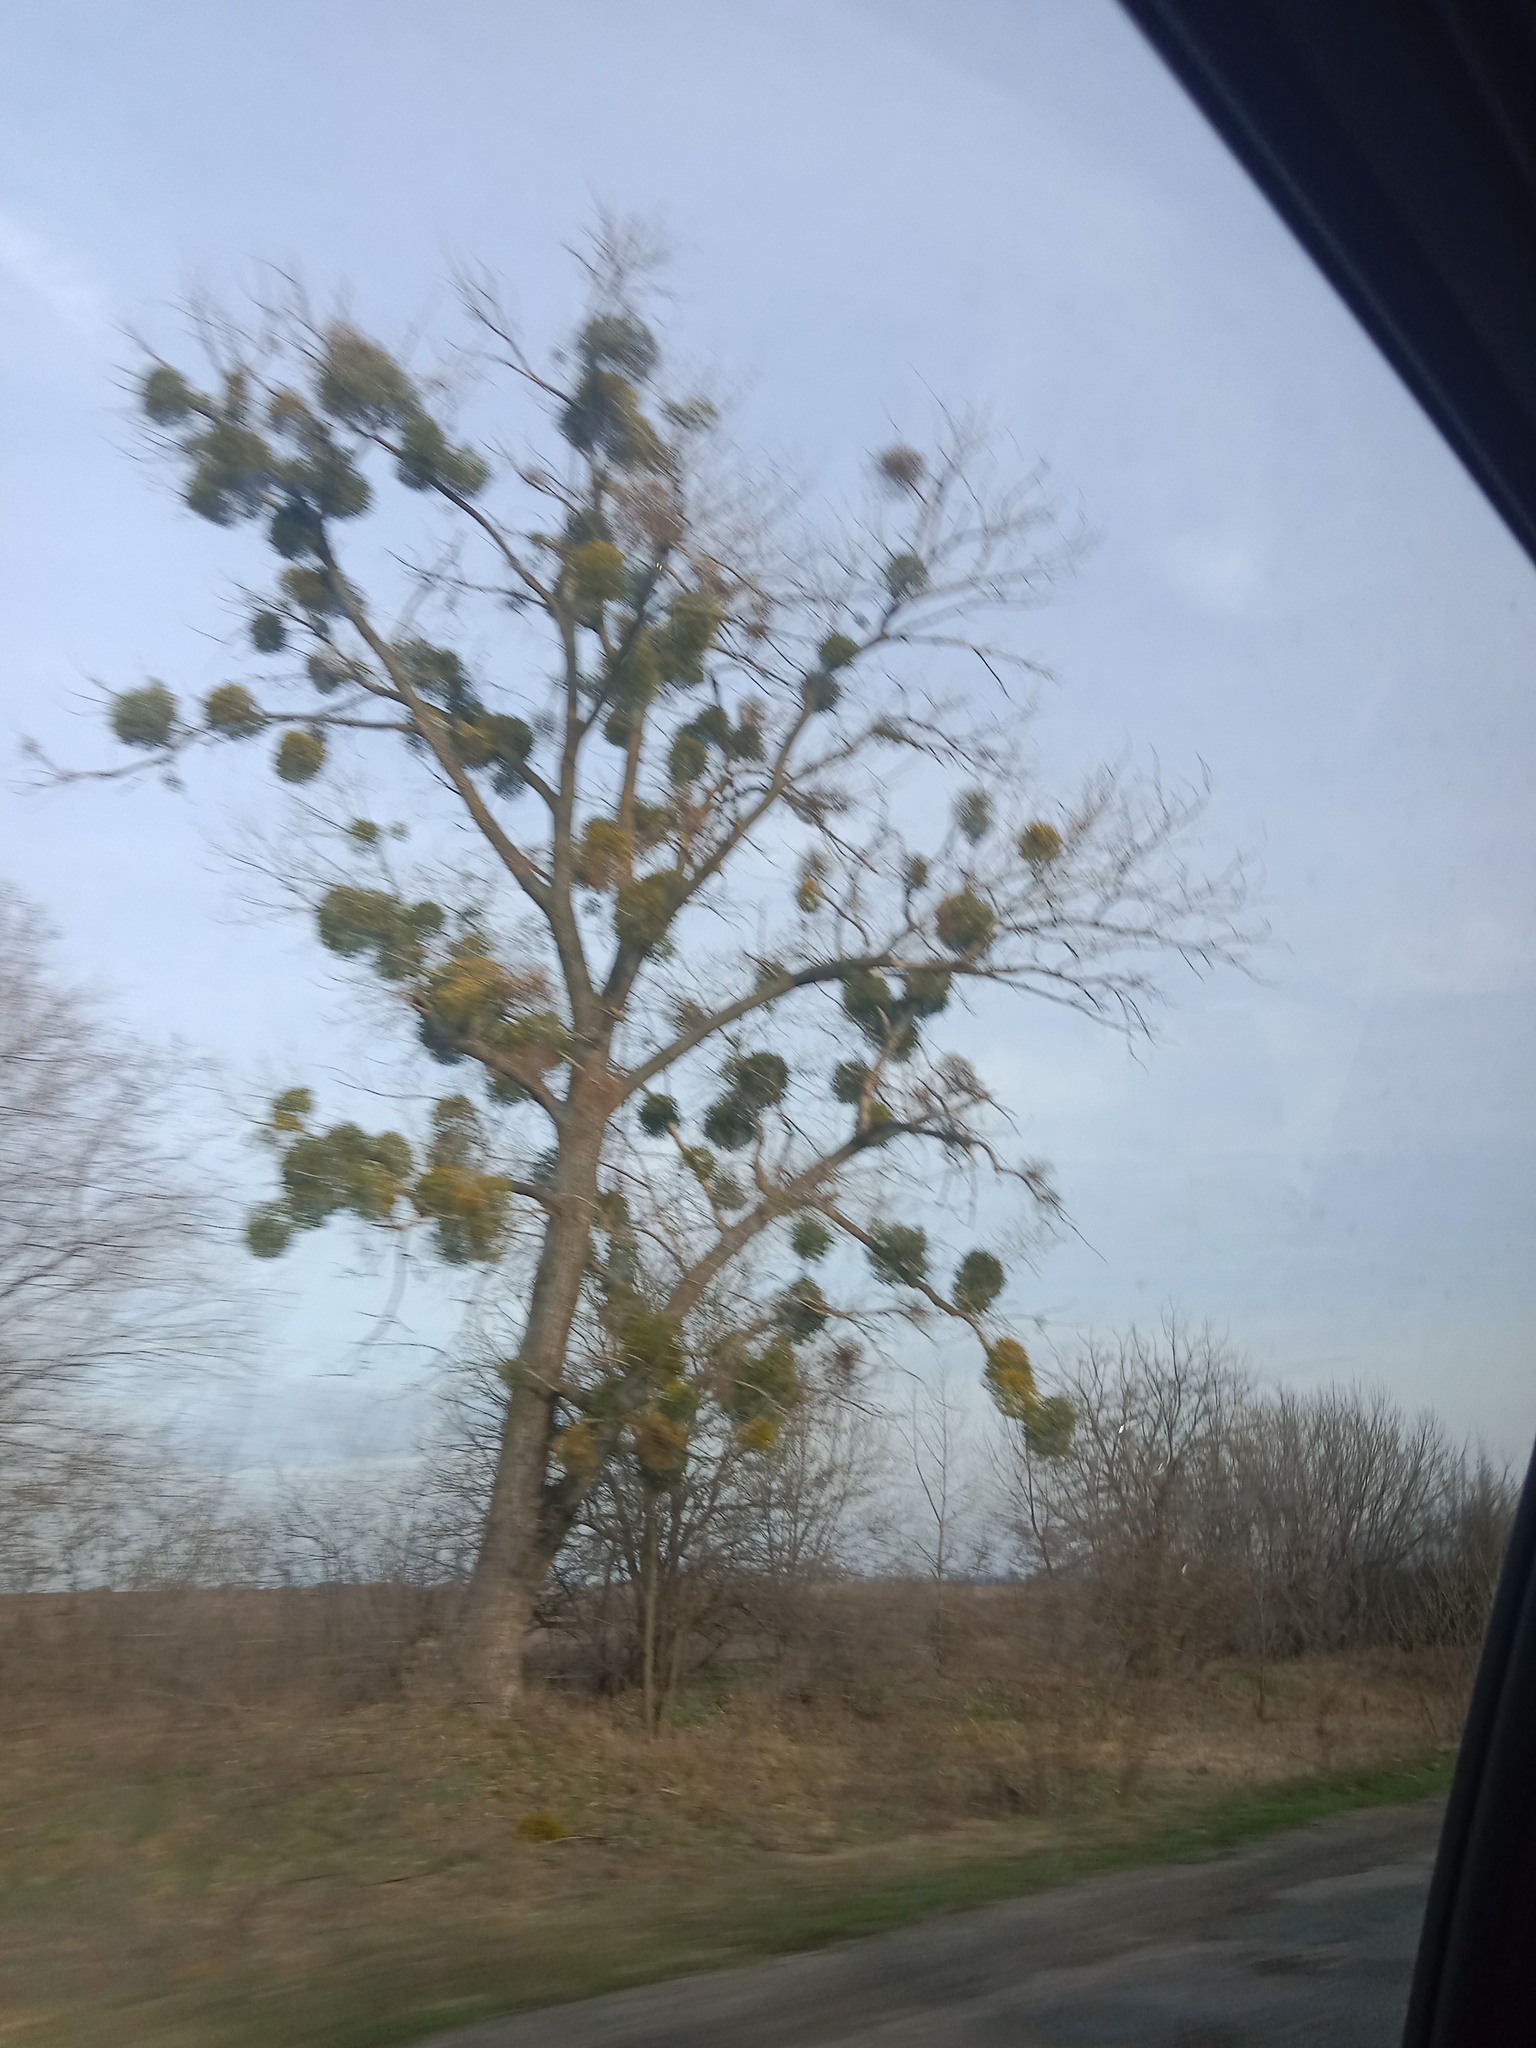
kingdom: Plantae
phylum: Tracheophyta
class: Magnoliopsida
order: Santalales
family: Viscaceae
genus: Viscum
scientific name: Viscum album
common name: Mistletoe
